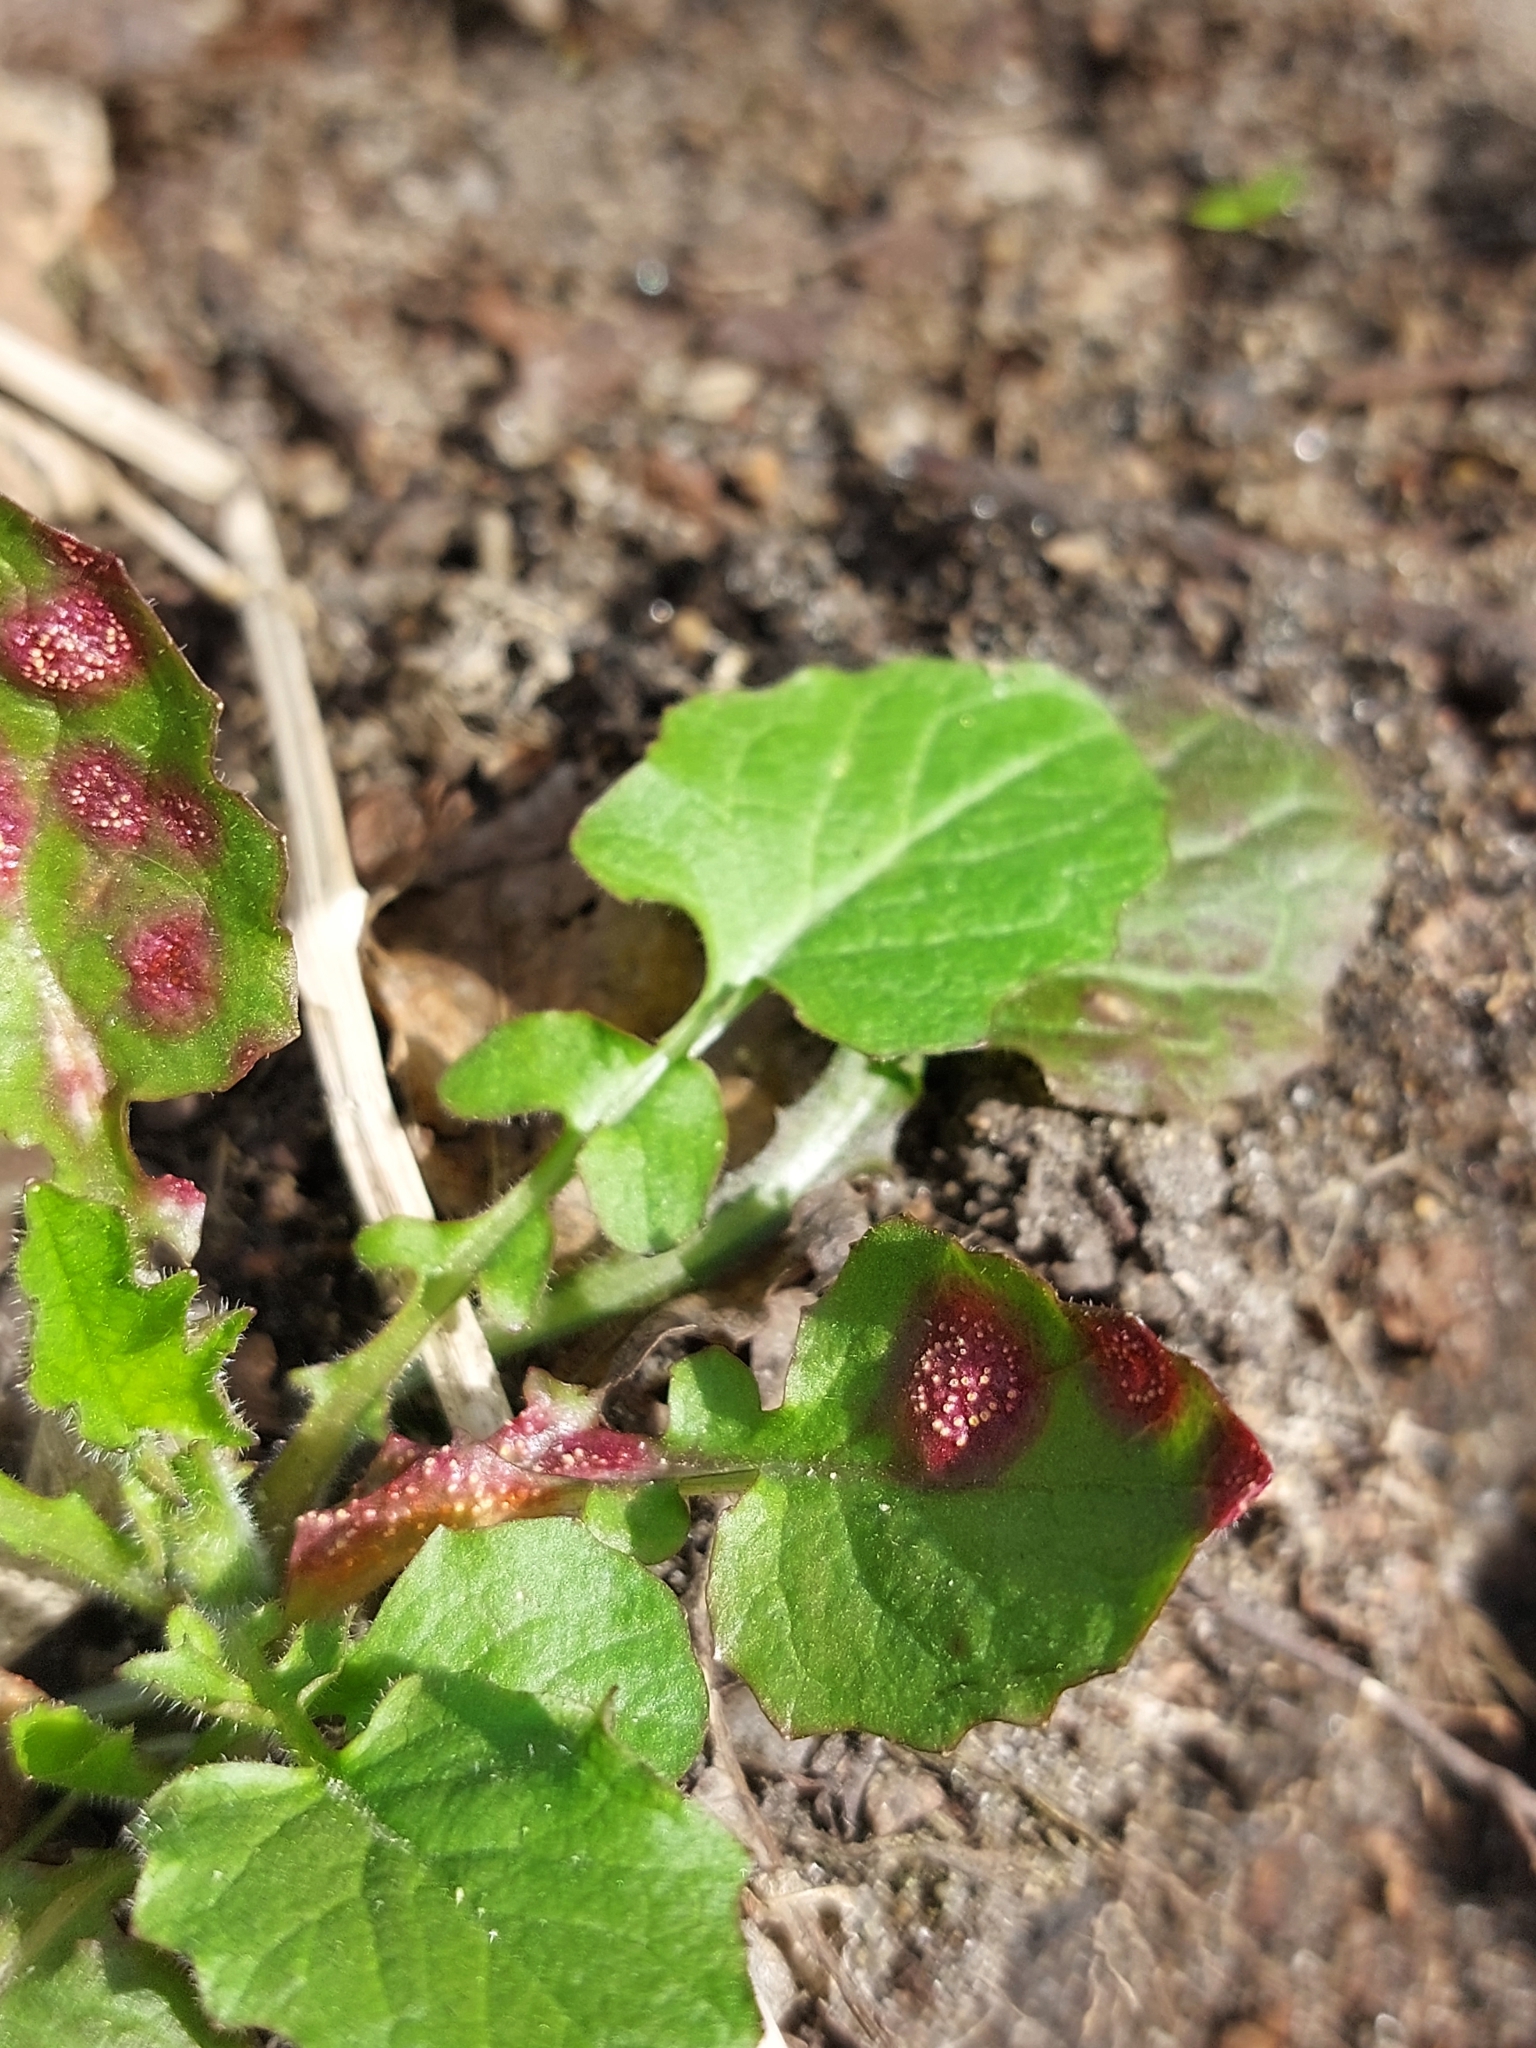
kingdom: Plantae
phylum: Tracheophyta
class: Magnoliopsida
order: Asterales
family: Asteraceae
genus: Lapsana
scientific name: Lapsana communis
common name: Nipplewort
